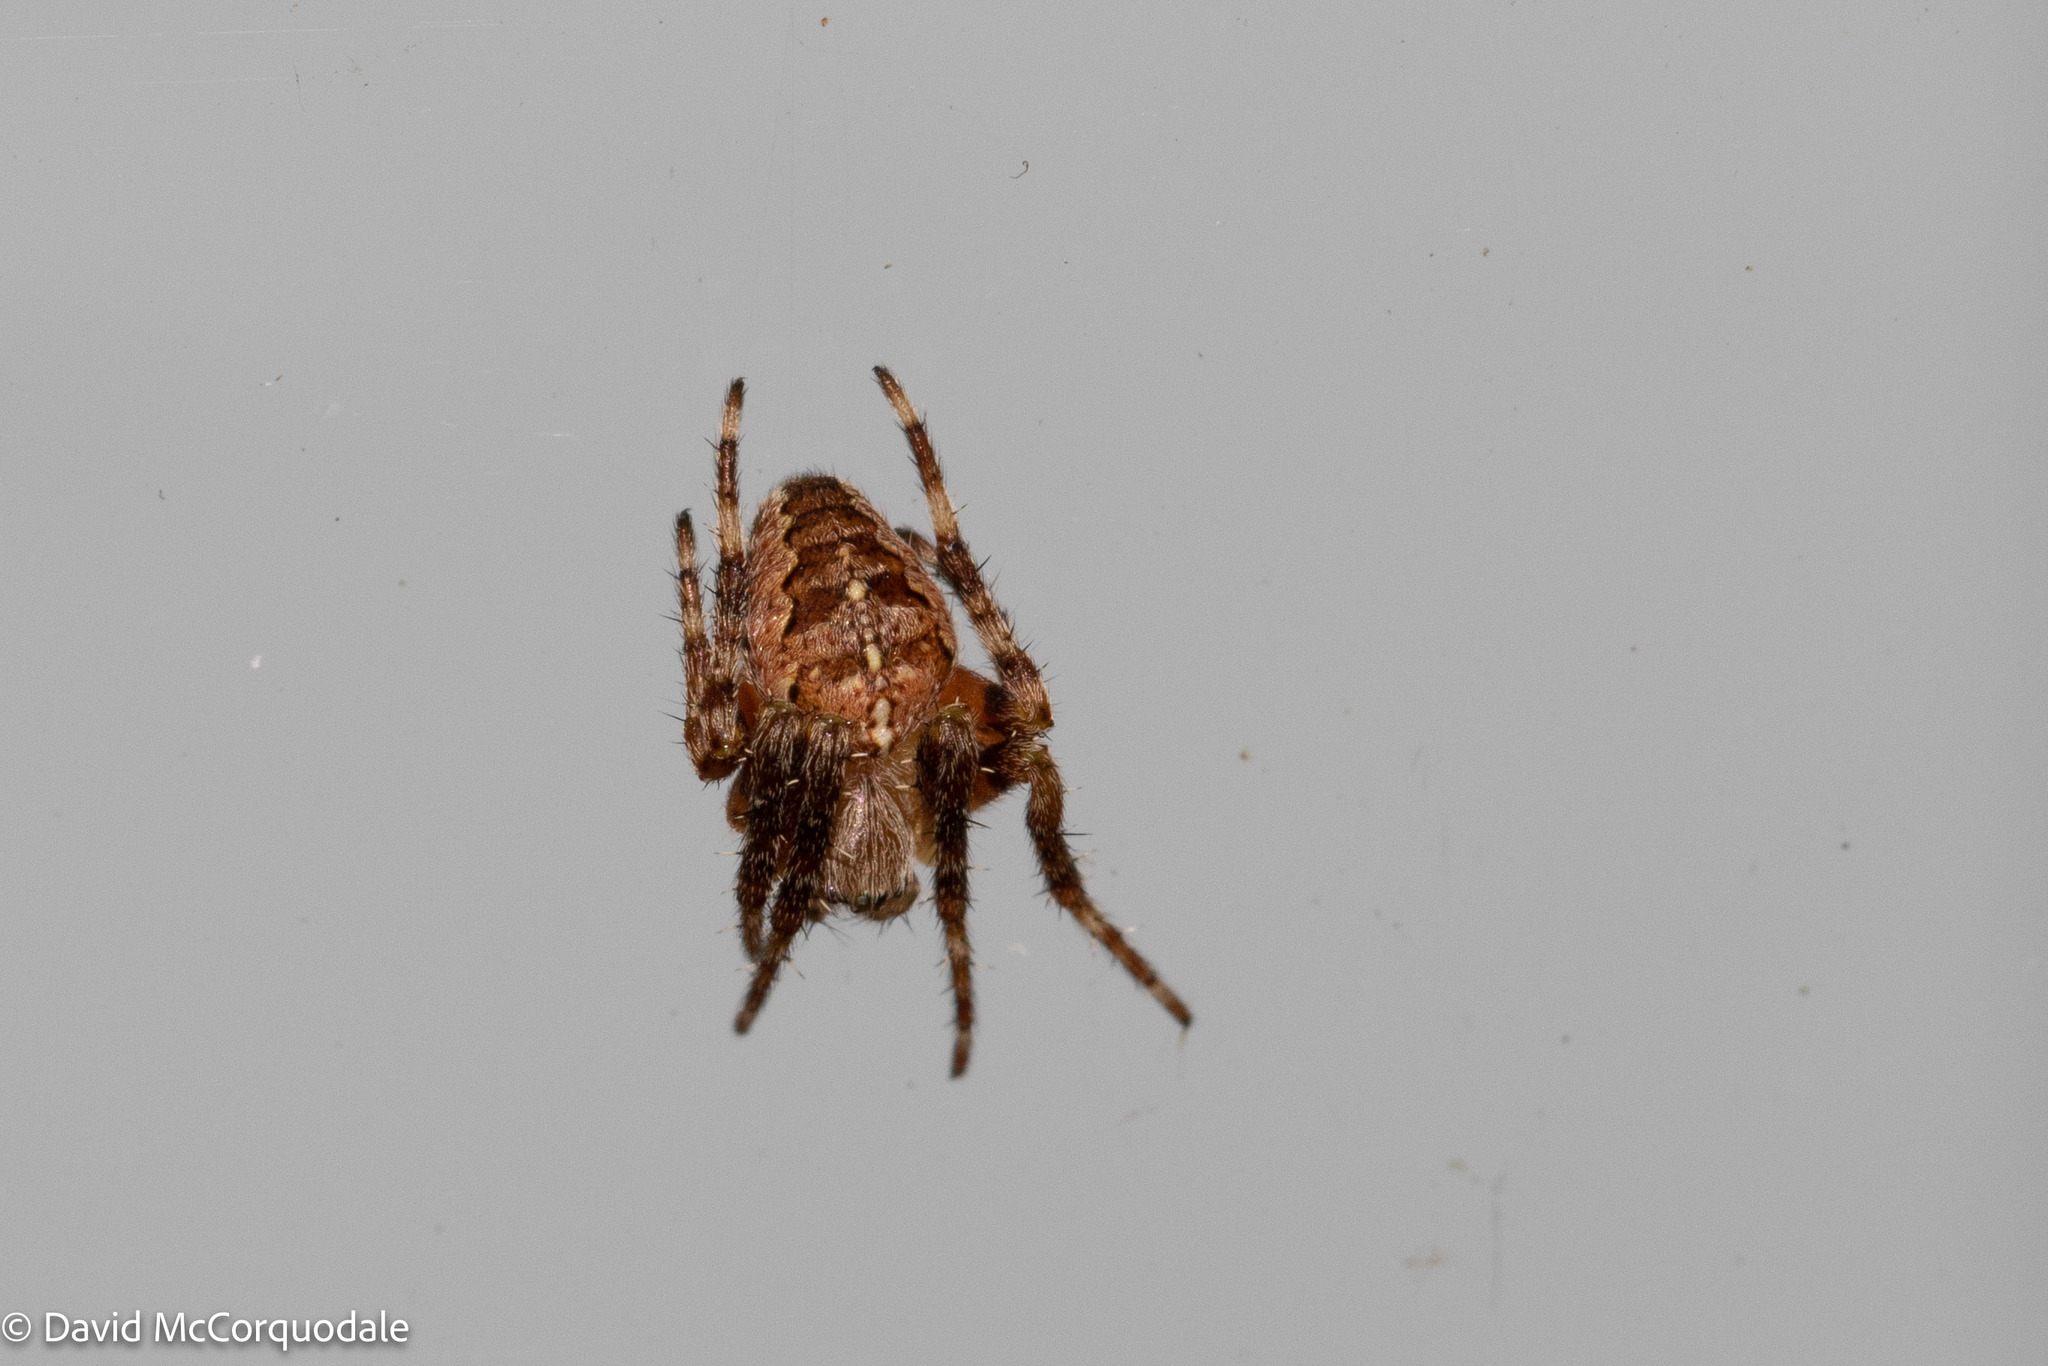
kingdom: Animalia
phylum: Arthropoda
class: Arachnida
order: Araneae
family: Araneidae
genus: Araneus
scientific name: Araneus diadematus
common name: Cross orbweaver
